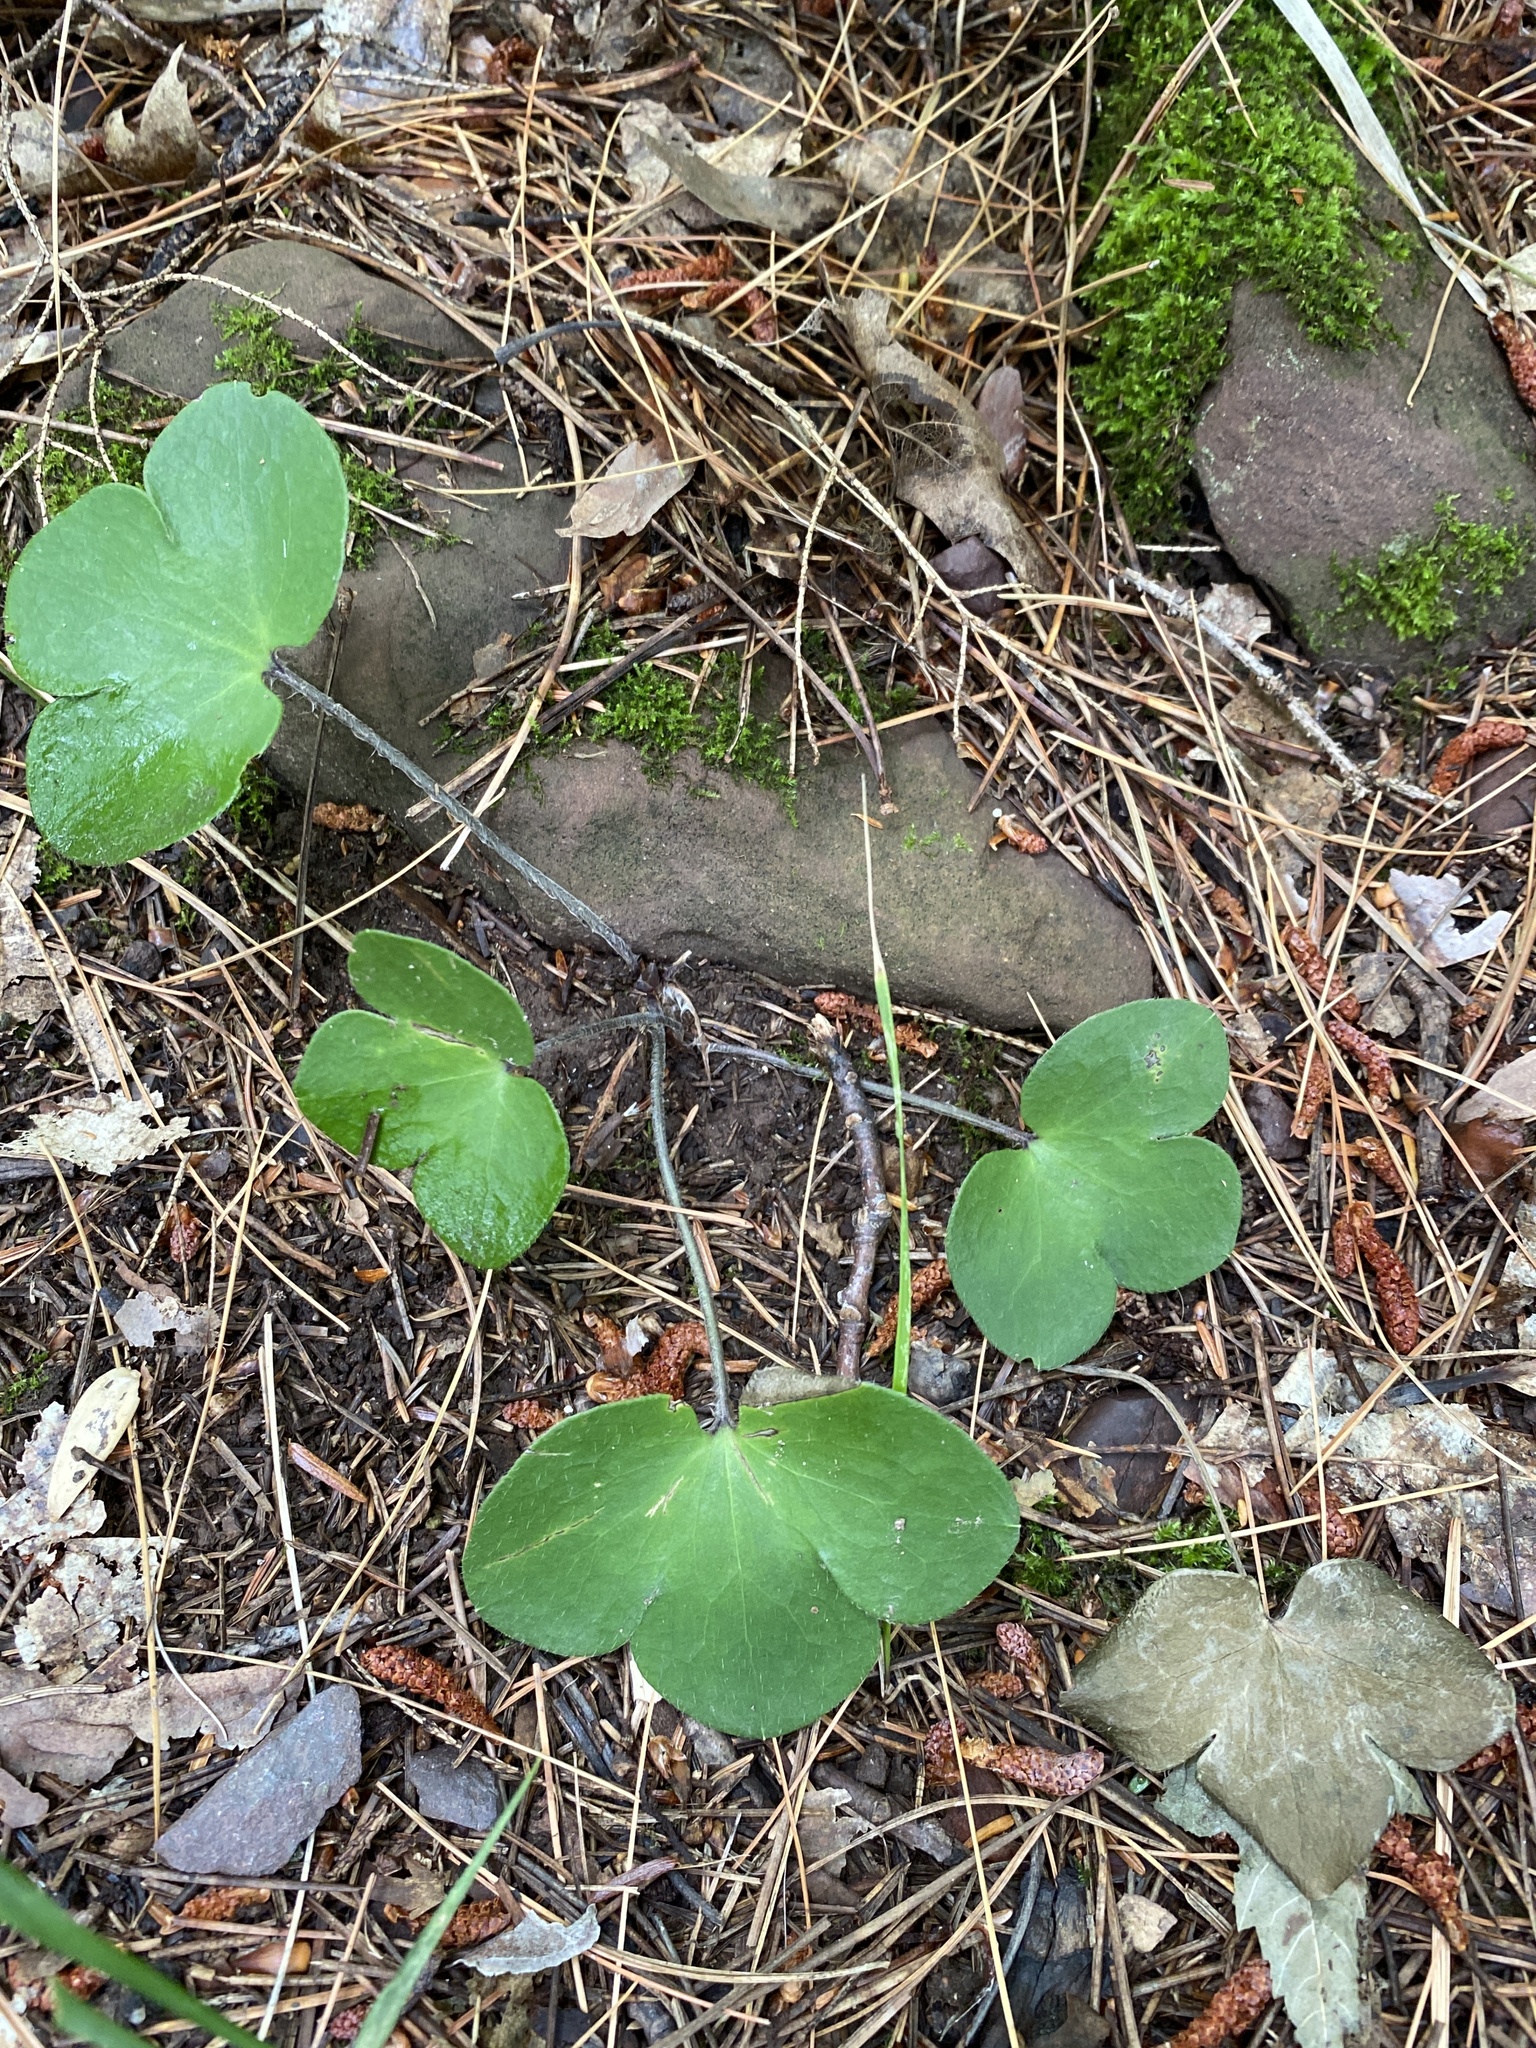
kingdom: Plantae
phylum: Tracheophyta
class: Magnoliopsida
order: Ranunculales
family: Ranunculaceae
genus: Hepatica
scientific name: Hepatica americana
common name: American hepatica
